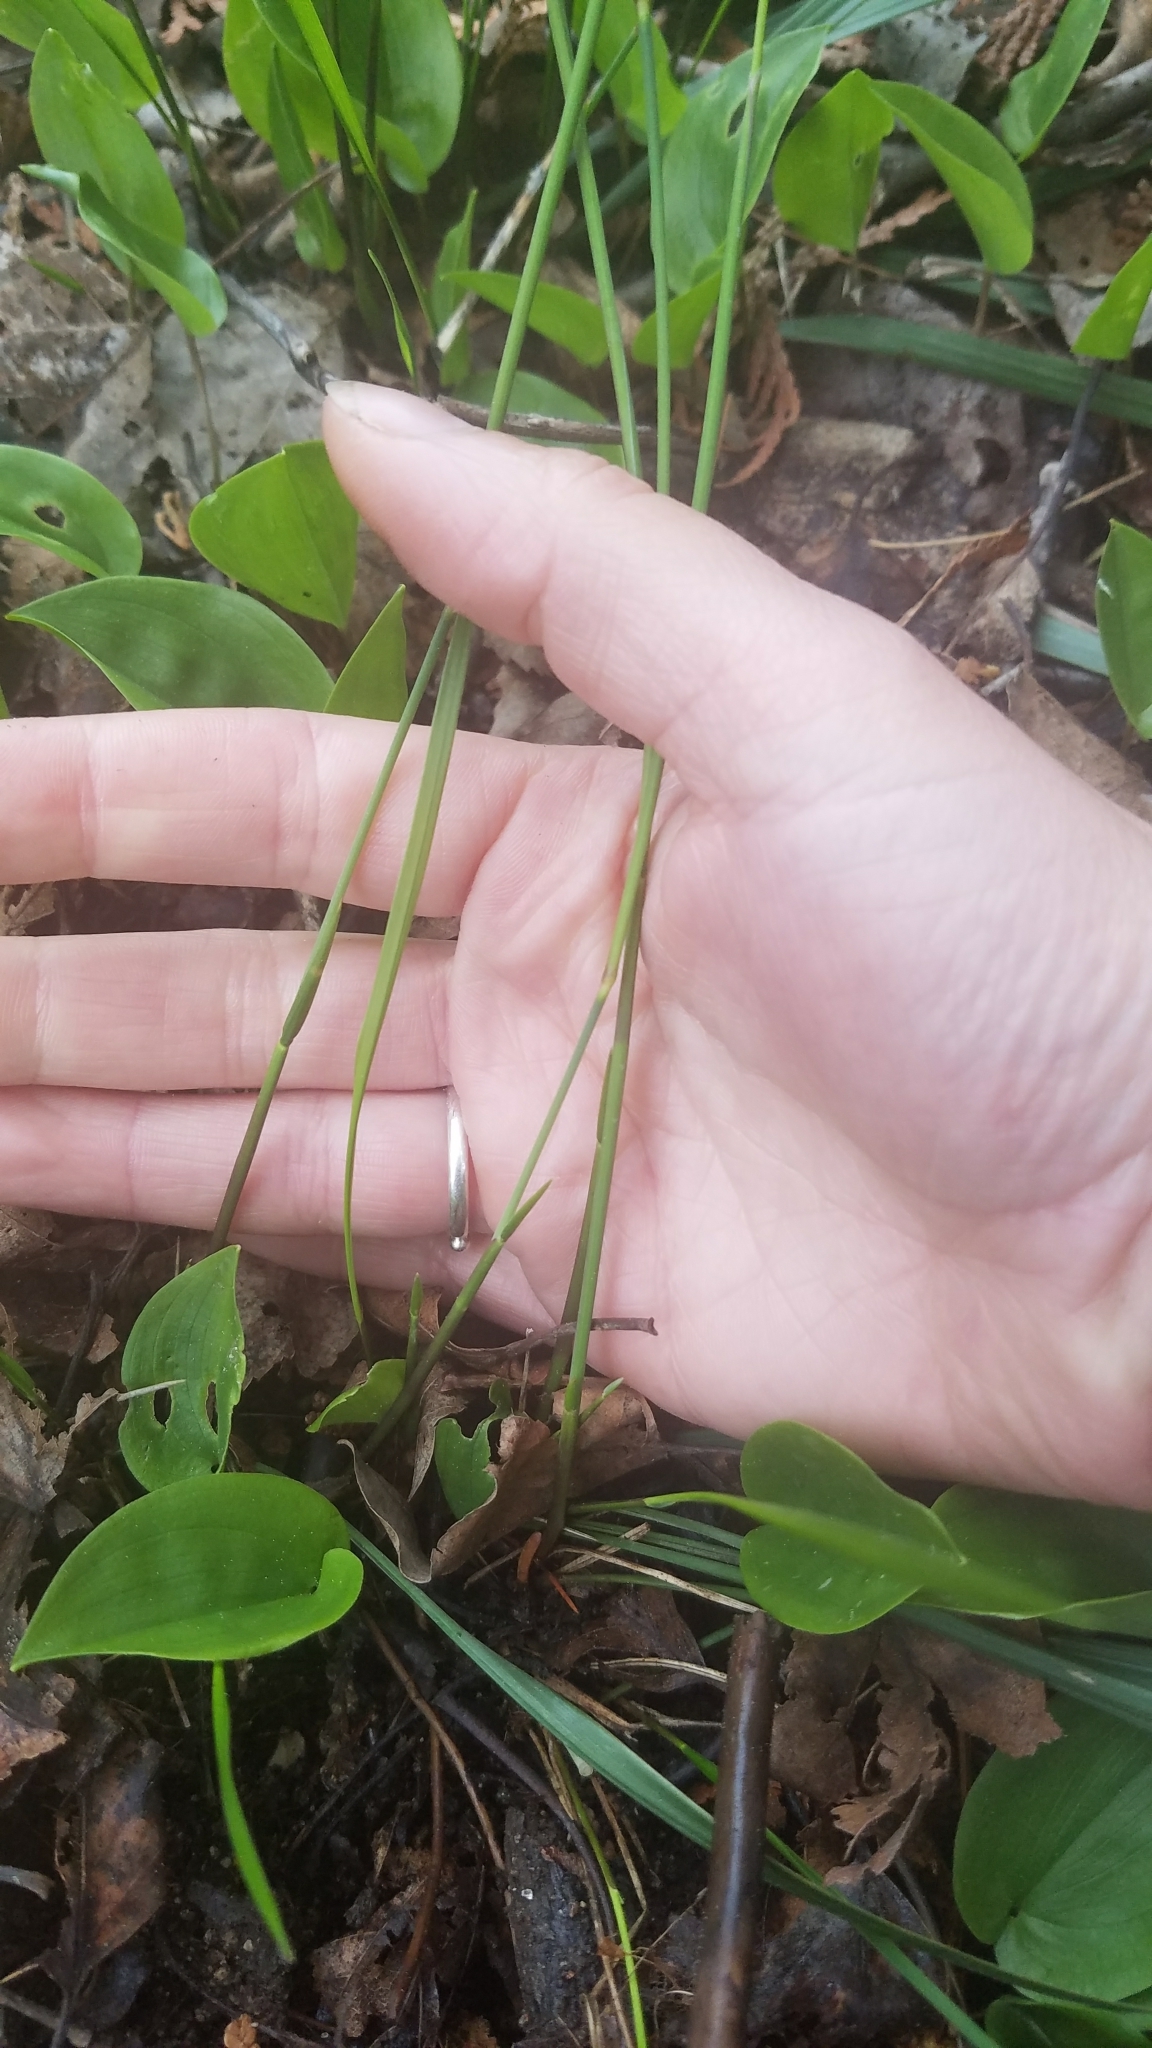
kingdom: Plantae
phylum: Tracheophyta
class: Liliopsida
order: Poales
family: Poaceae
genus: Oryzopsis
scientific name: Oryzopsis asperifolia
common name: Rough-leaved mountain rice
